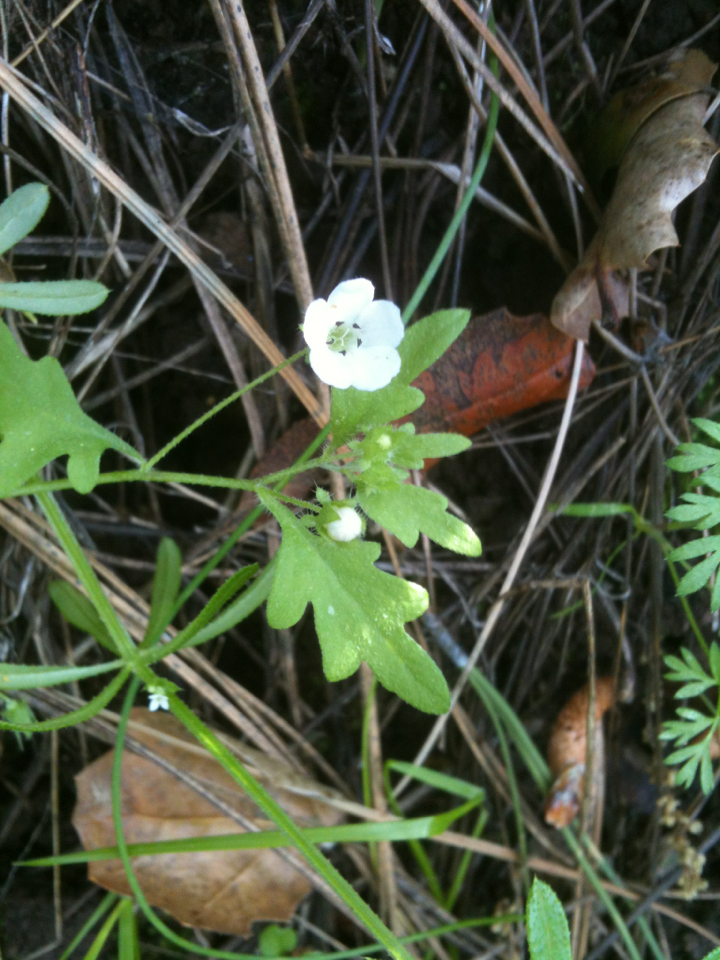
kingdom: Plantae
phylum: Tracheophyta
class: Magnoliopsida
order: Boraginales
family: Hydrophyllaceae
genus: Nemophila
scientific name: Nemophila heterophylla
